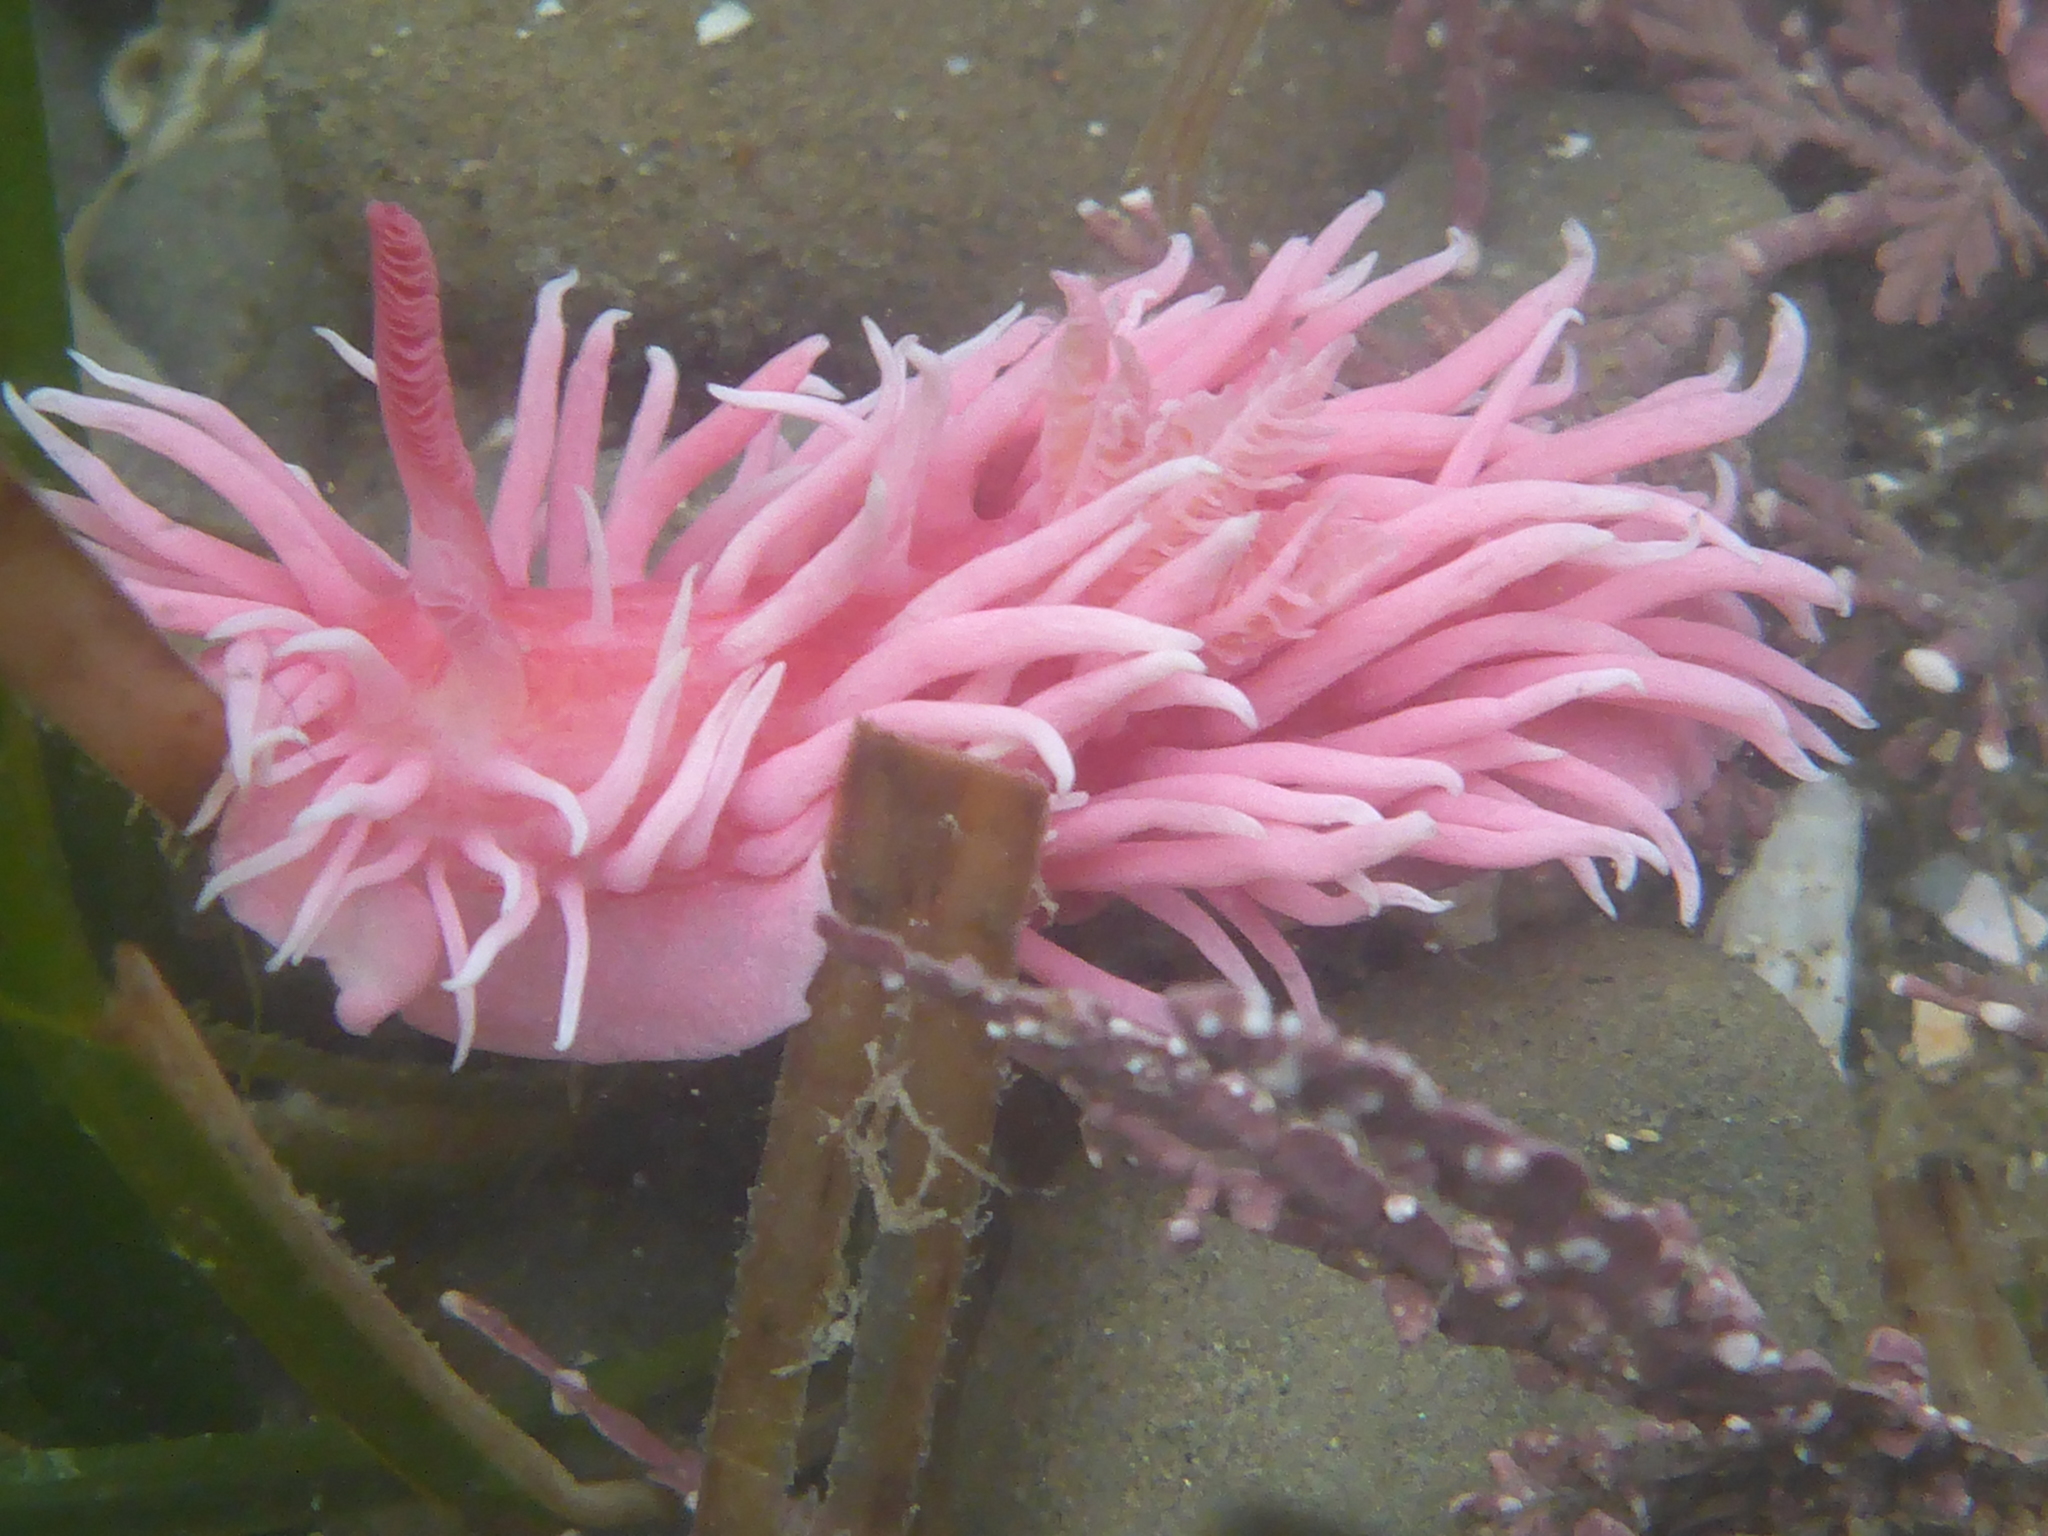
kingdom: Animalia
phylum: Mollusca
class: Gastropoda
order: Nudibranchia
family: Goniodorididae
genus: Okenia
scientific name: Okenia
